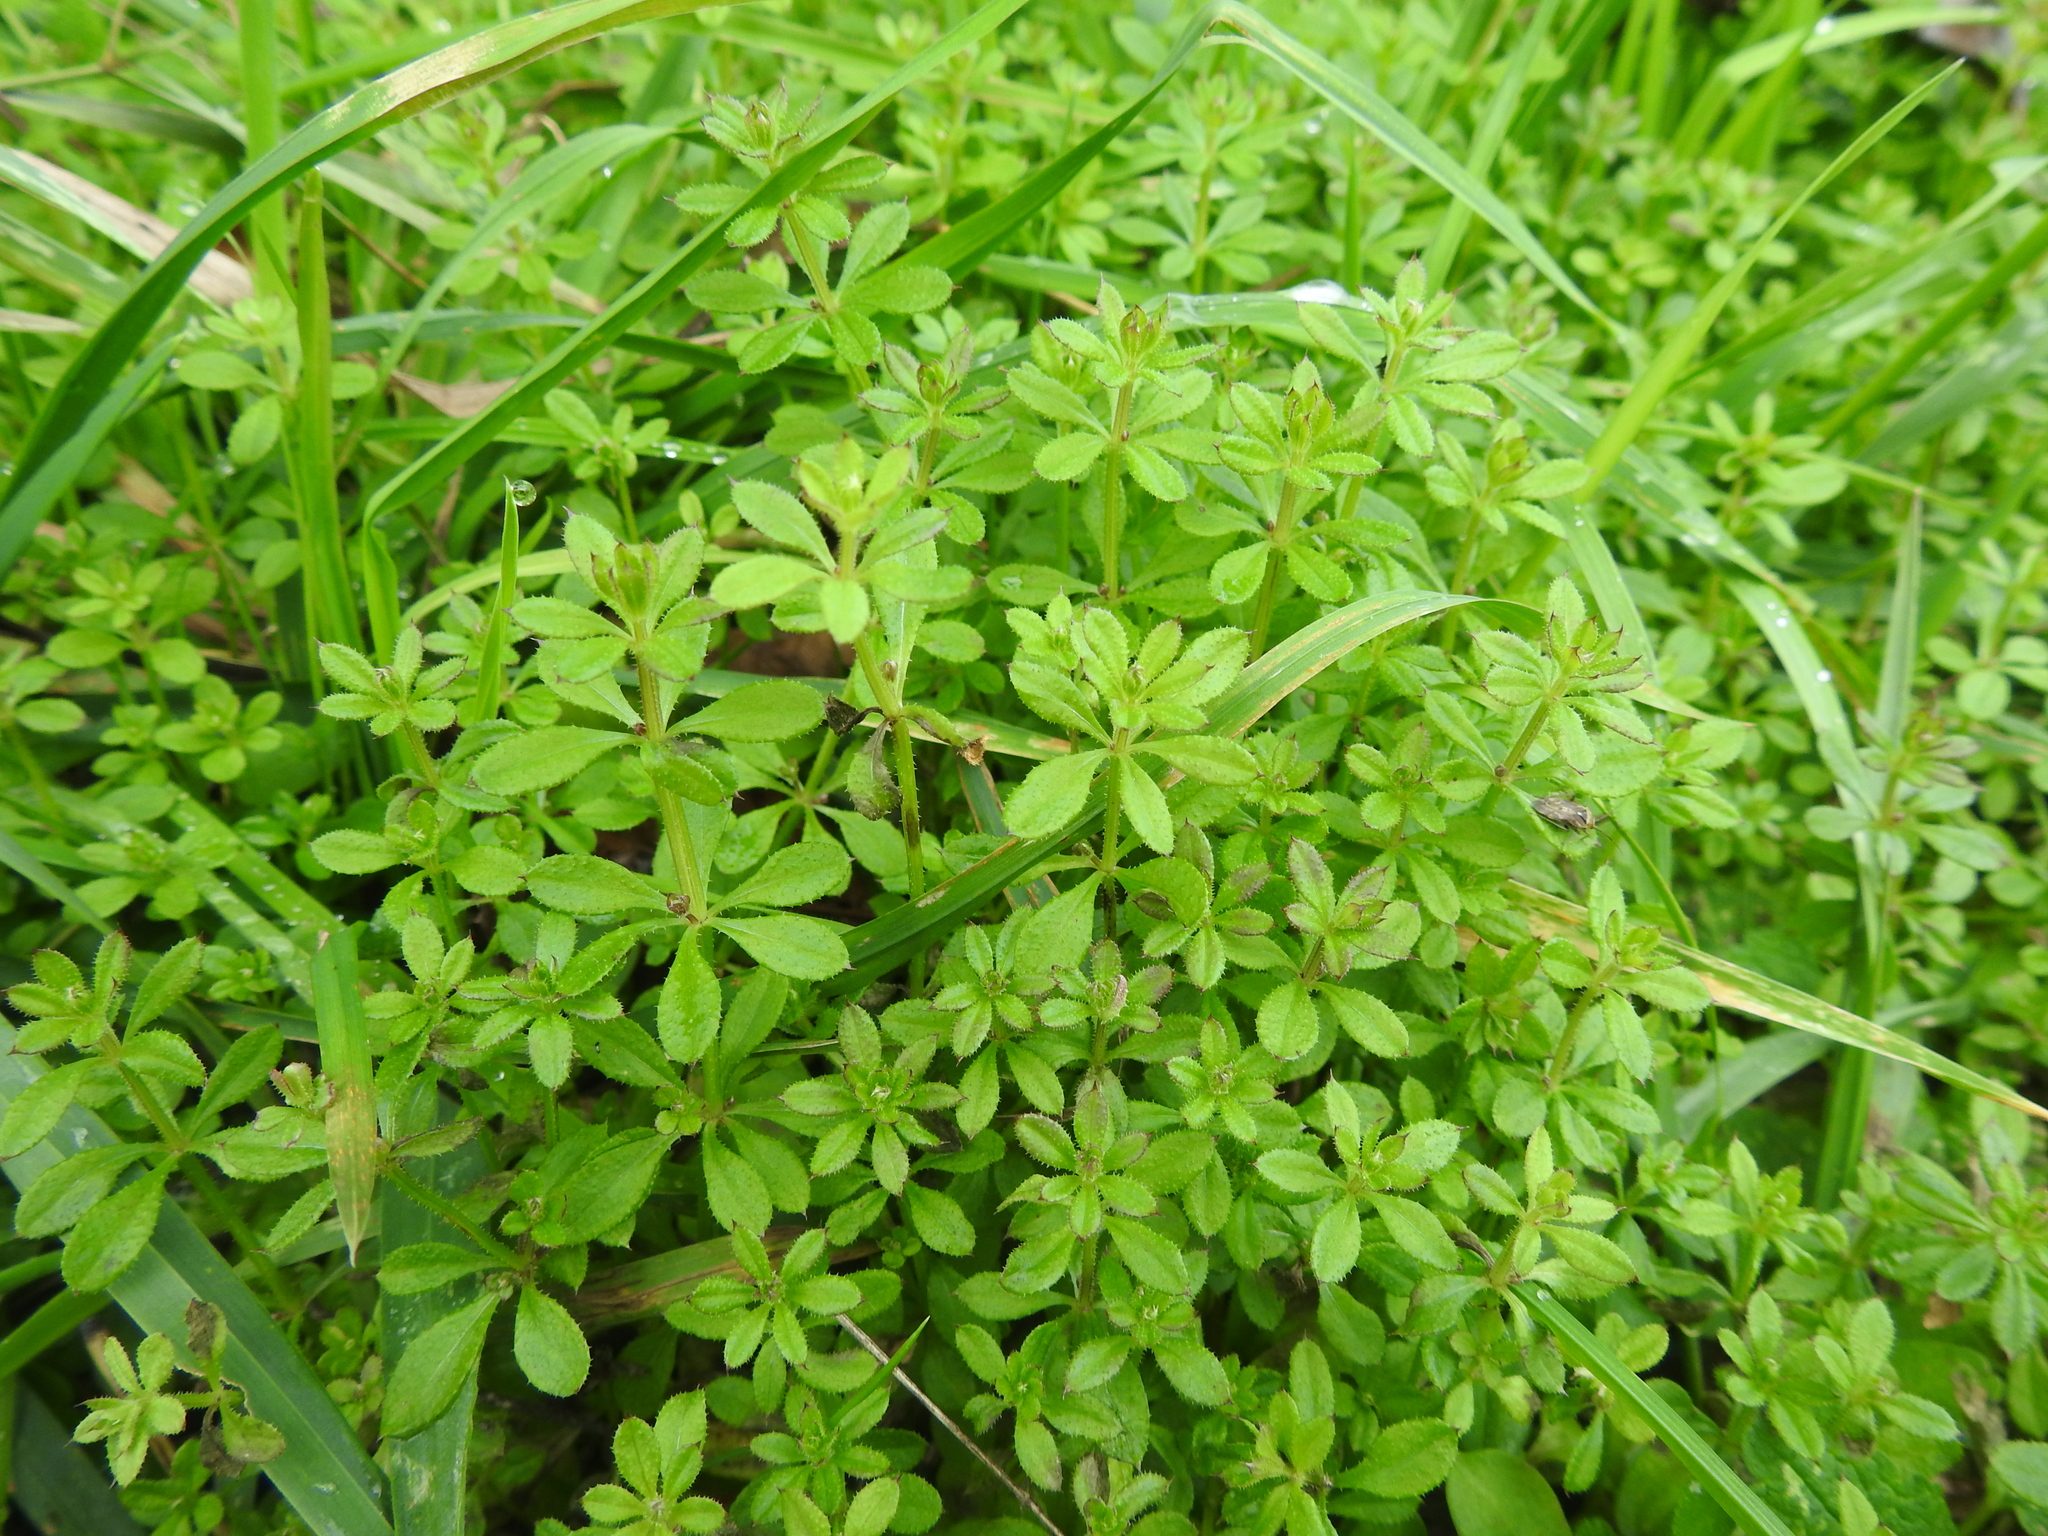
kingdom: Plantae
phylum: Tracheophyta
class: Magnoliopsida
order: Gentianales
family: Rubiaceae
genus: Galium
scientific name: Galium aparine
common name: Cleavers
